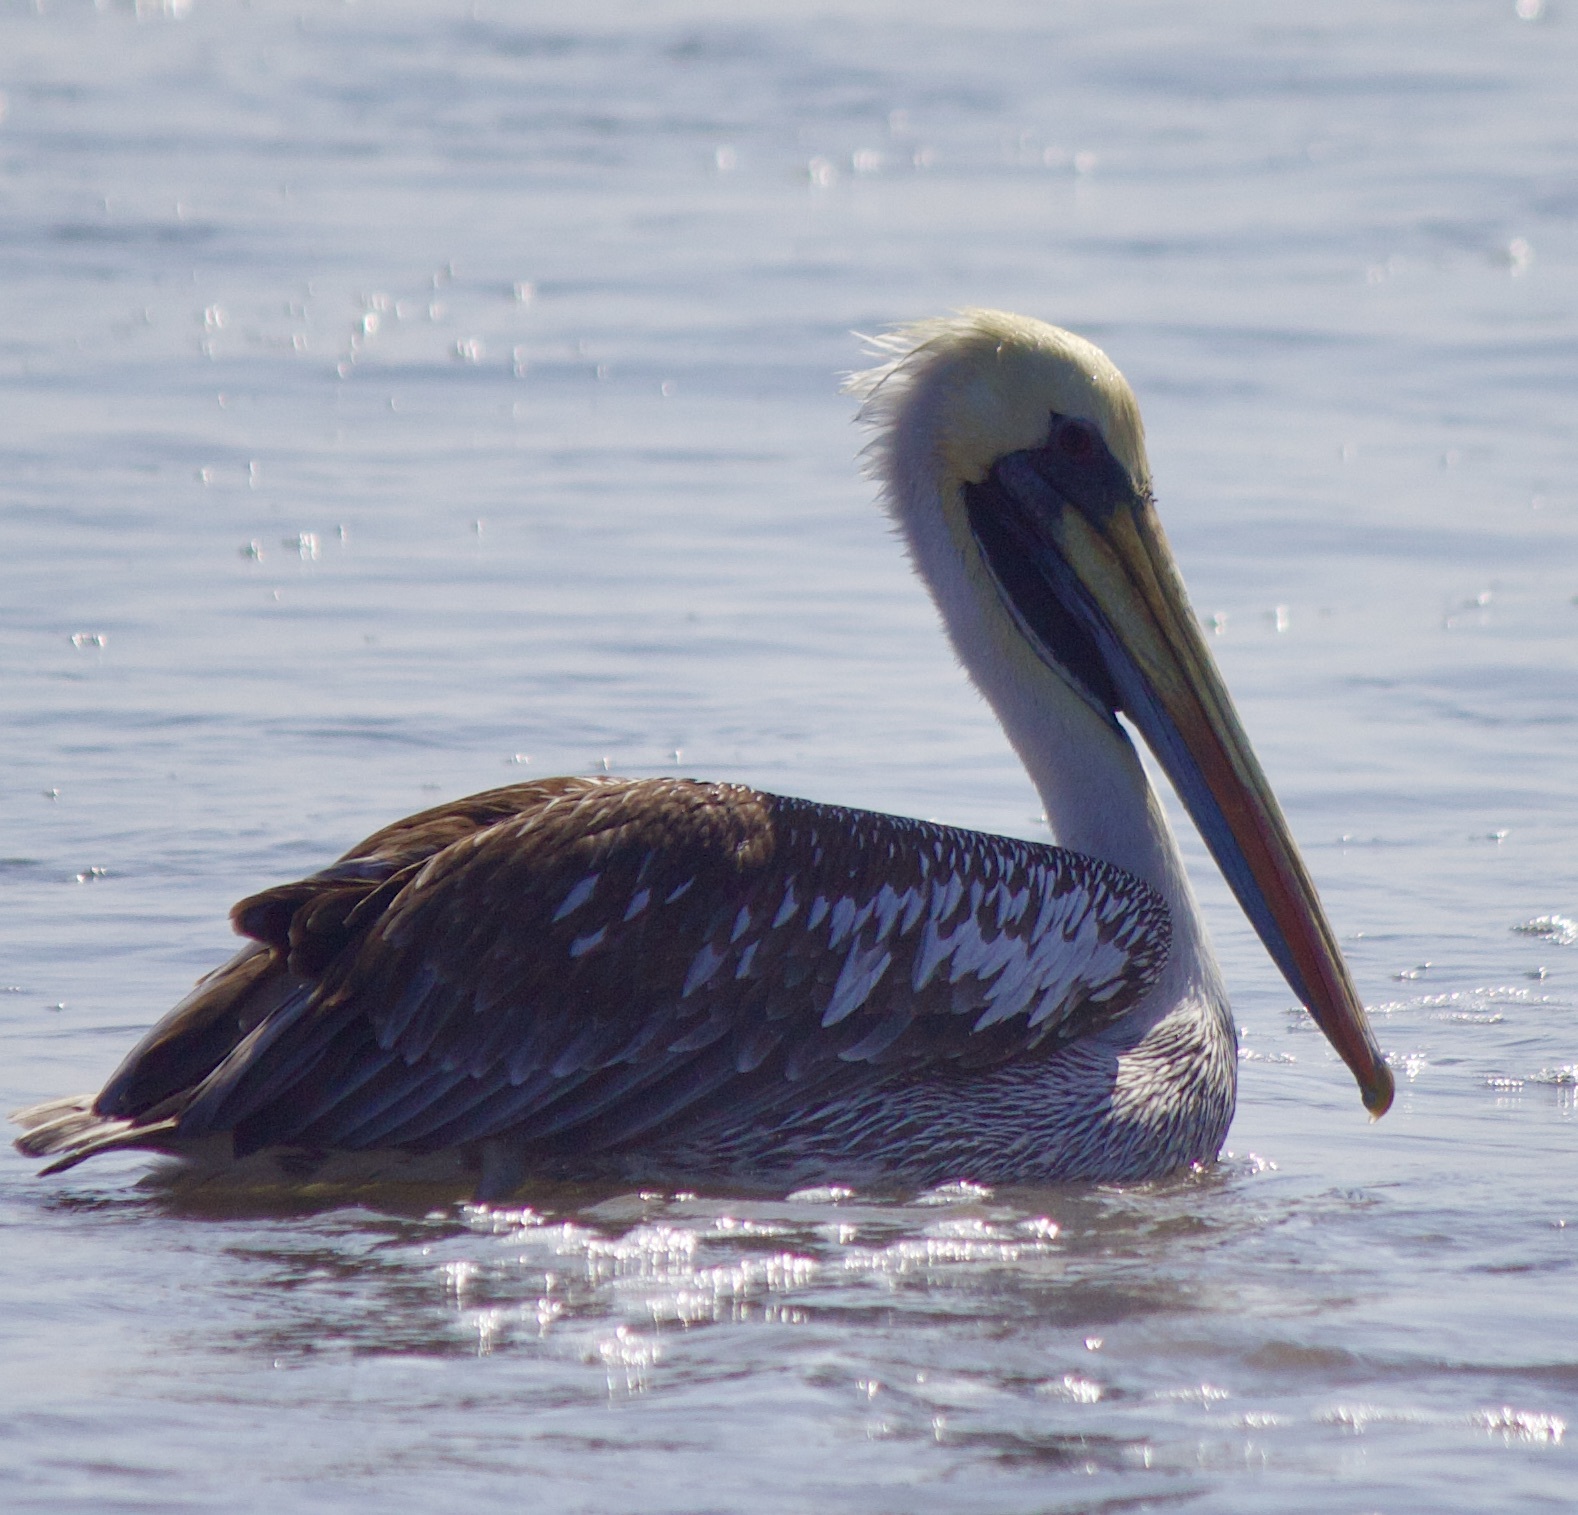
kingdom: Animalia
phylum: Chordata
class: Aves
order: Pelecaniformes
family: Pelecanidae
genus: Pelecanus
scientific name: Pelecanus thagus
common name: Peruvian pelican
